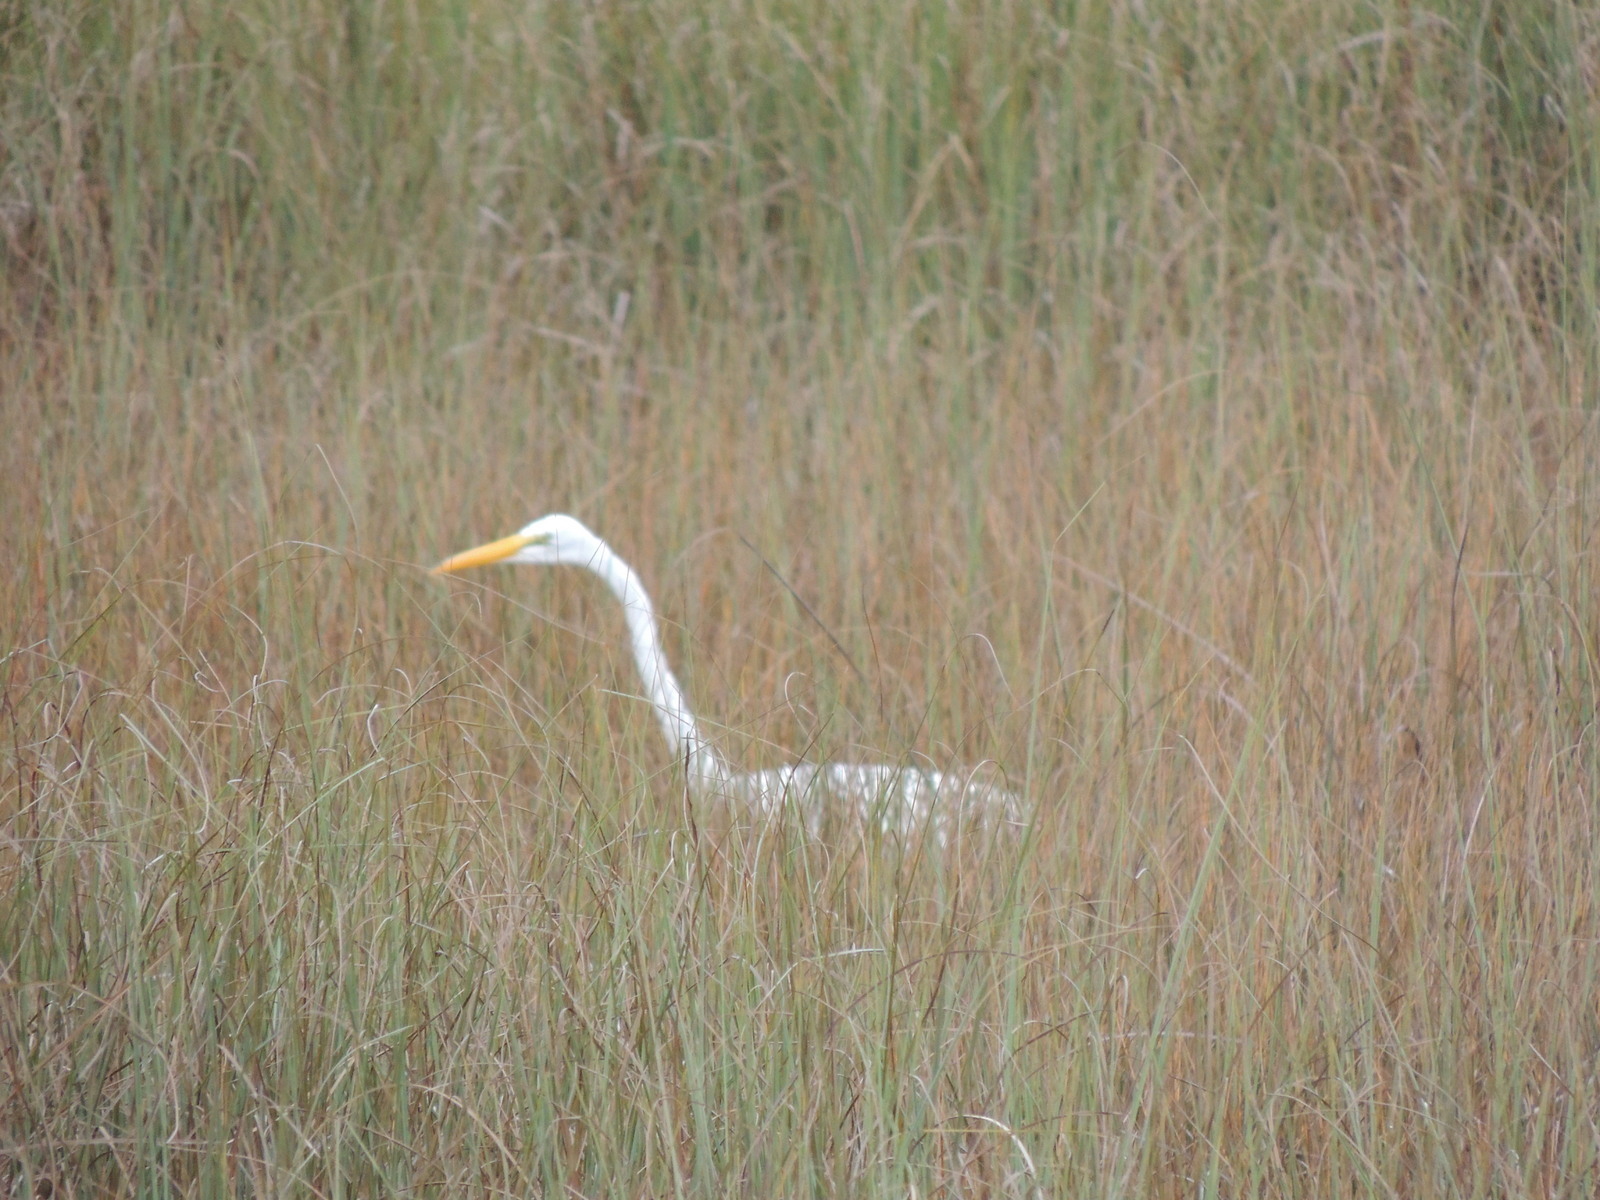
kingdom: Animalia
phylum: Chordata
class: Aves
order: Pelecaniformes
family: Ardeidae
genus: Ardea
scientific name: Ardea alba
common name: Great egret
